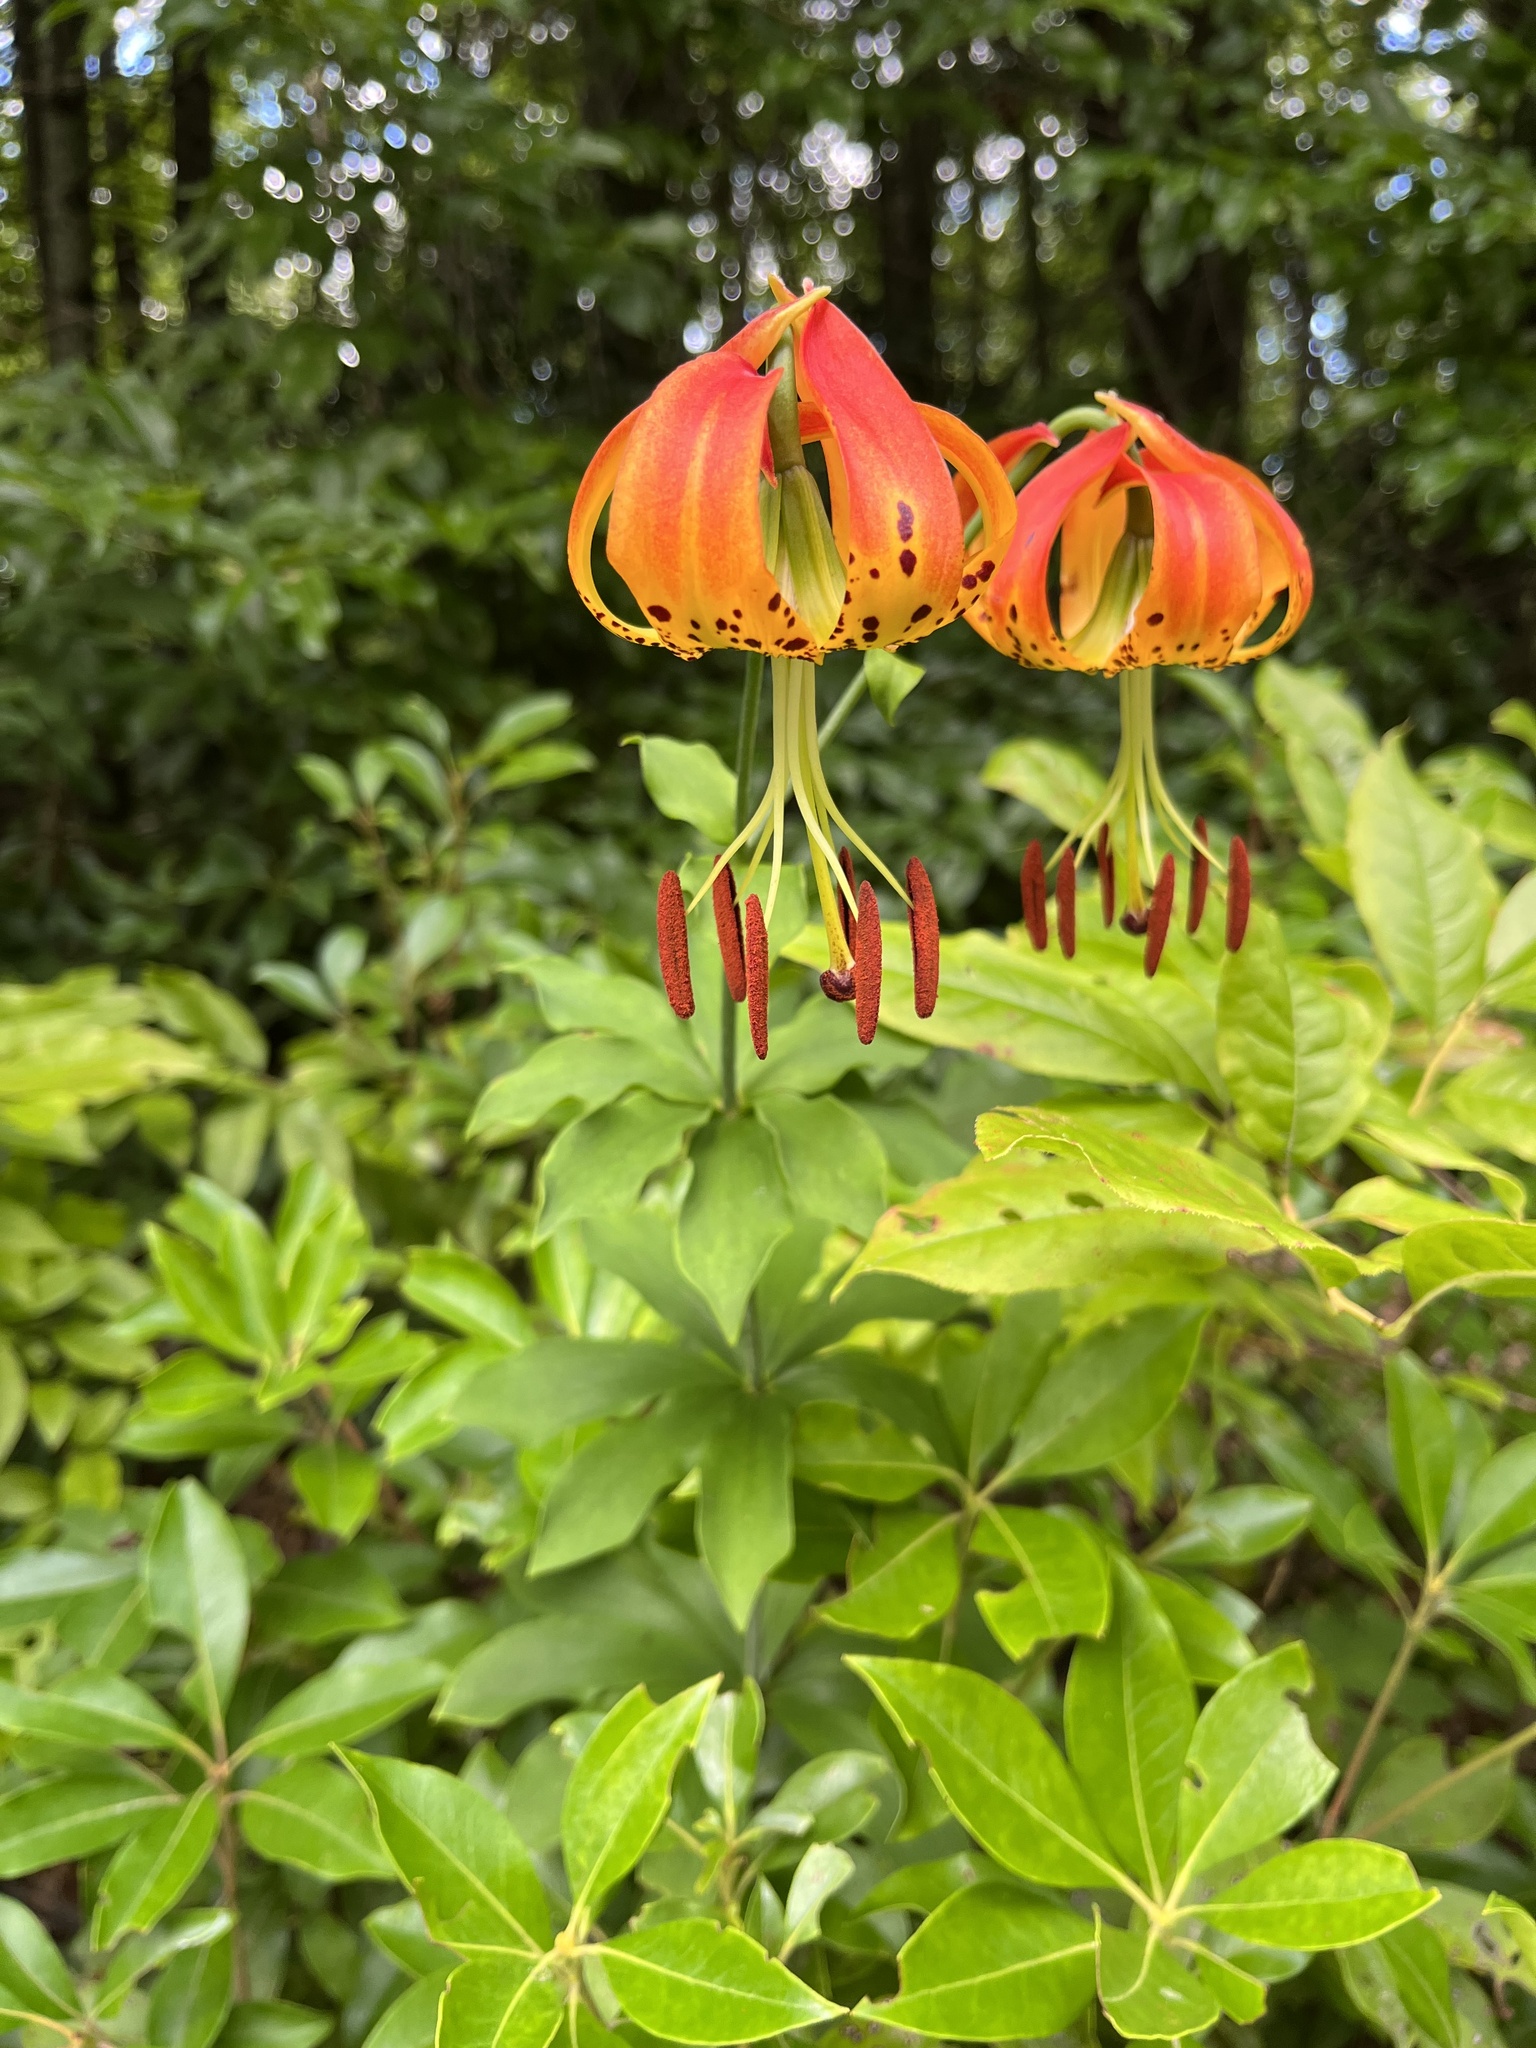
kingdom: Plantae
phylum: Tracheophyta
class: Liliopsida
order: Liliales
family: Liliaceae
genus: Lilium
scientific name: Lilium michauxii
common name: Carolina lily
